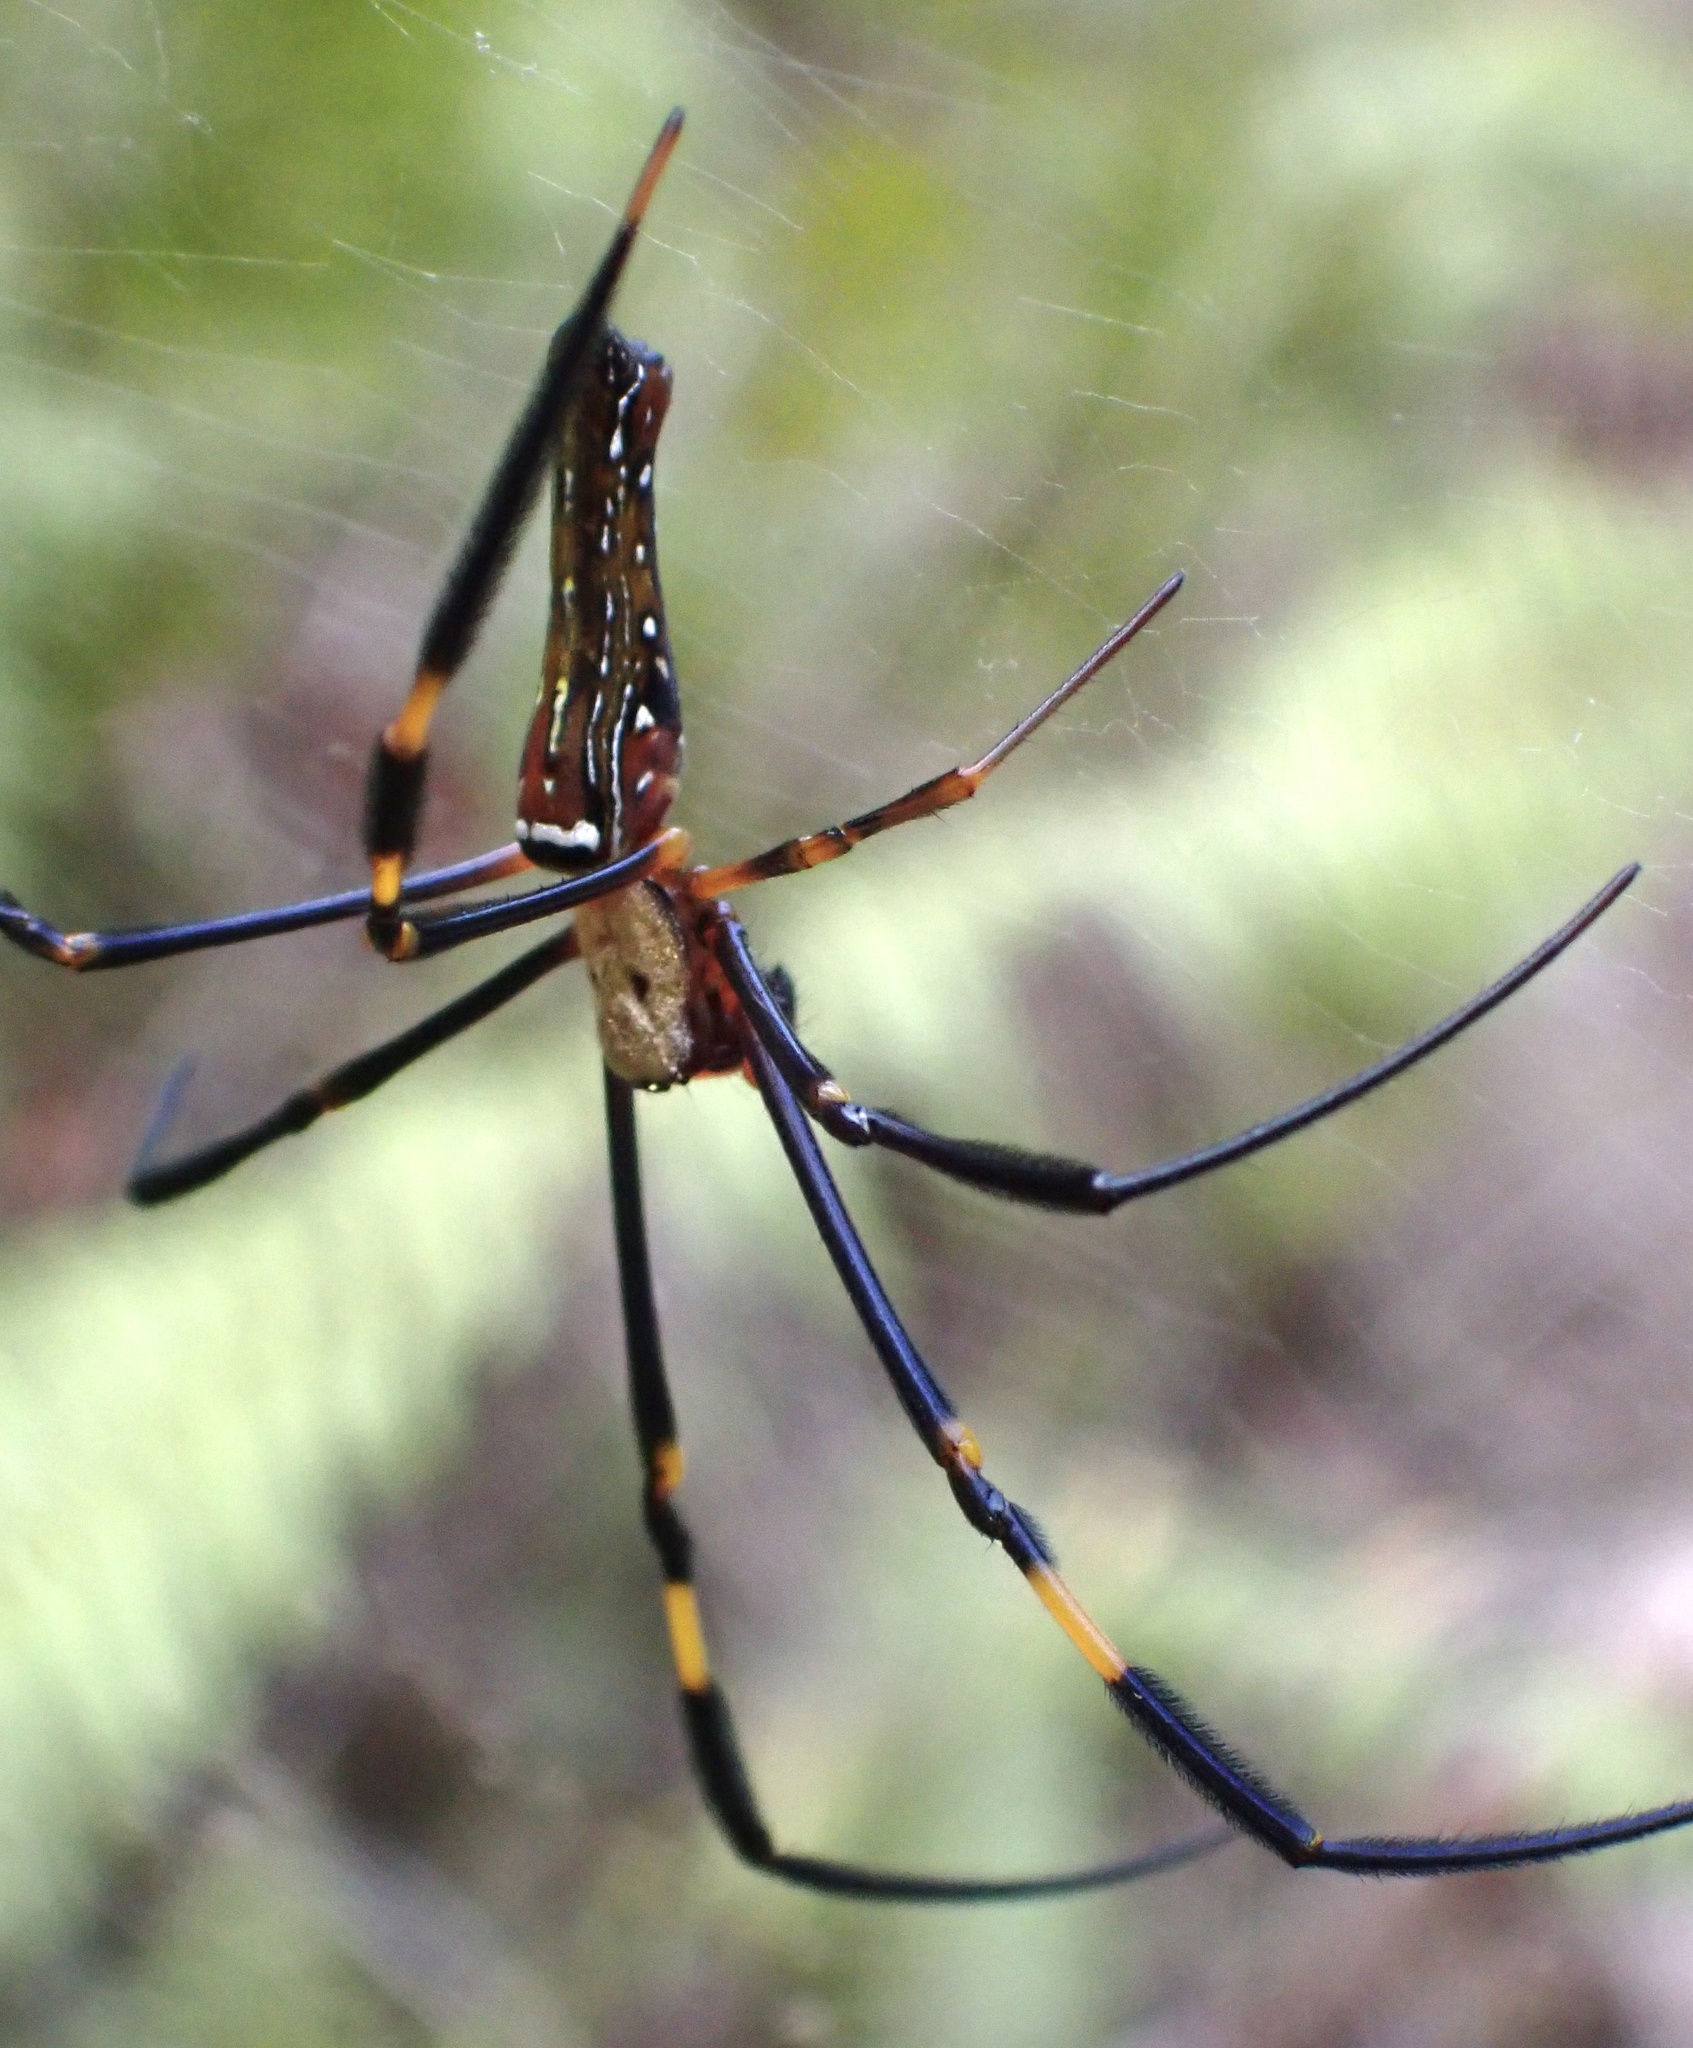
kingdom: Animalia
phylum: Arthropoda
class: Arachnida
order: Araneae
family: Araneidae
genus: Nephila
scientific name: Nephila pilipes
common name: Giant golden orb weaver
